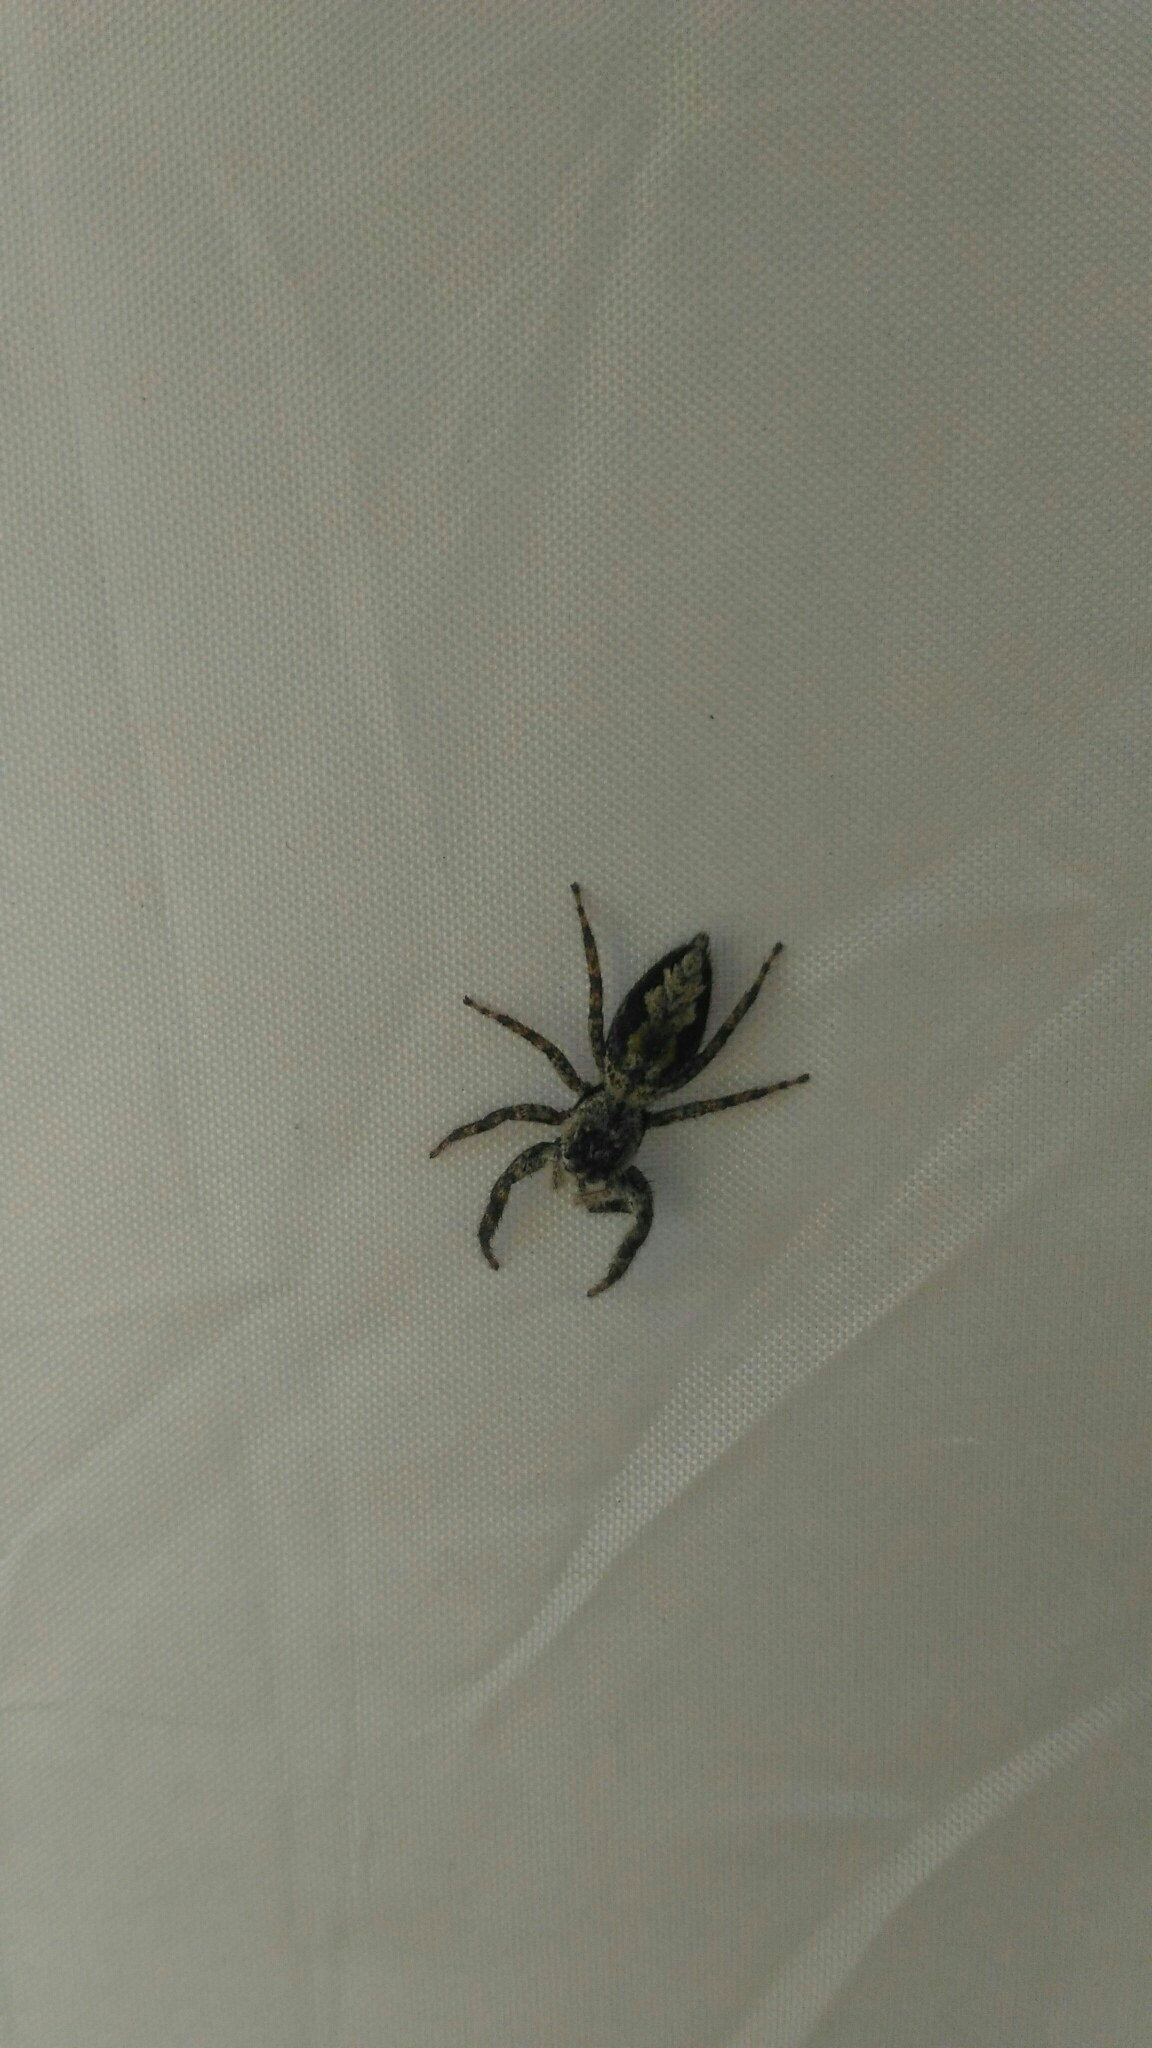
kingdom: Animalia
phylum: Arthropoda
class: Arachnida
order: Araneae
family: Salticidae
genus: Platycryptus
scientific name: Platycryptus undatus
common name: Tan jumping spider
